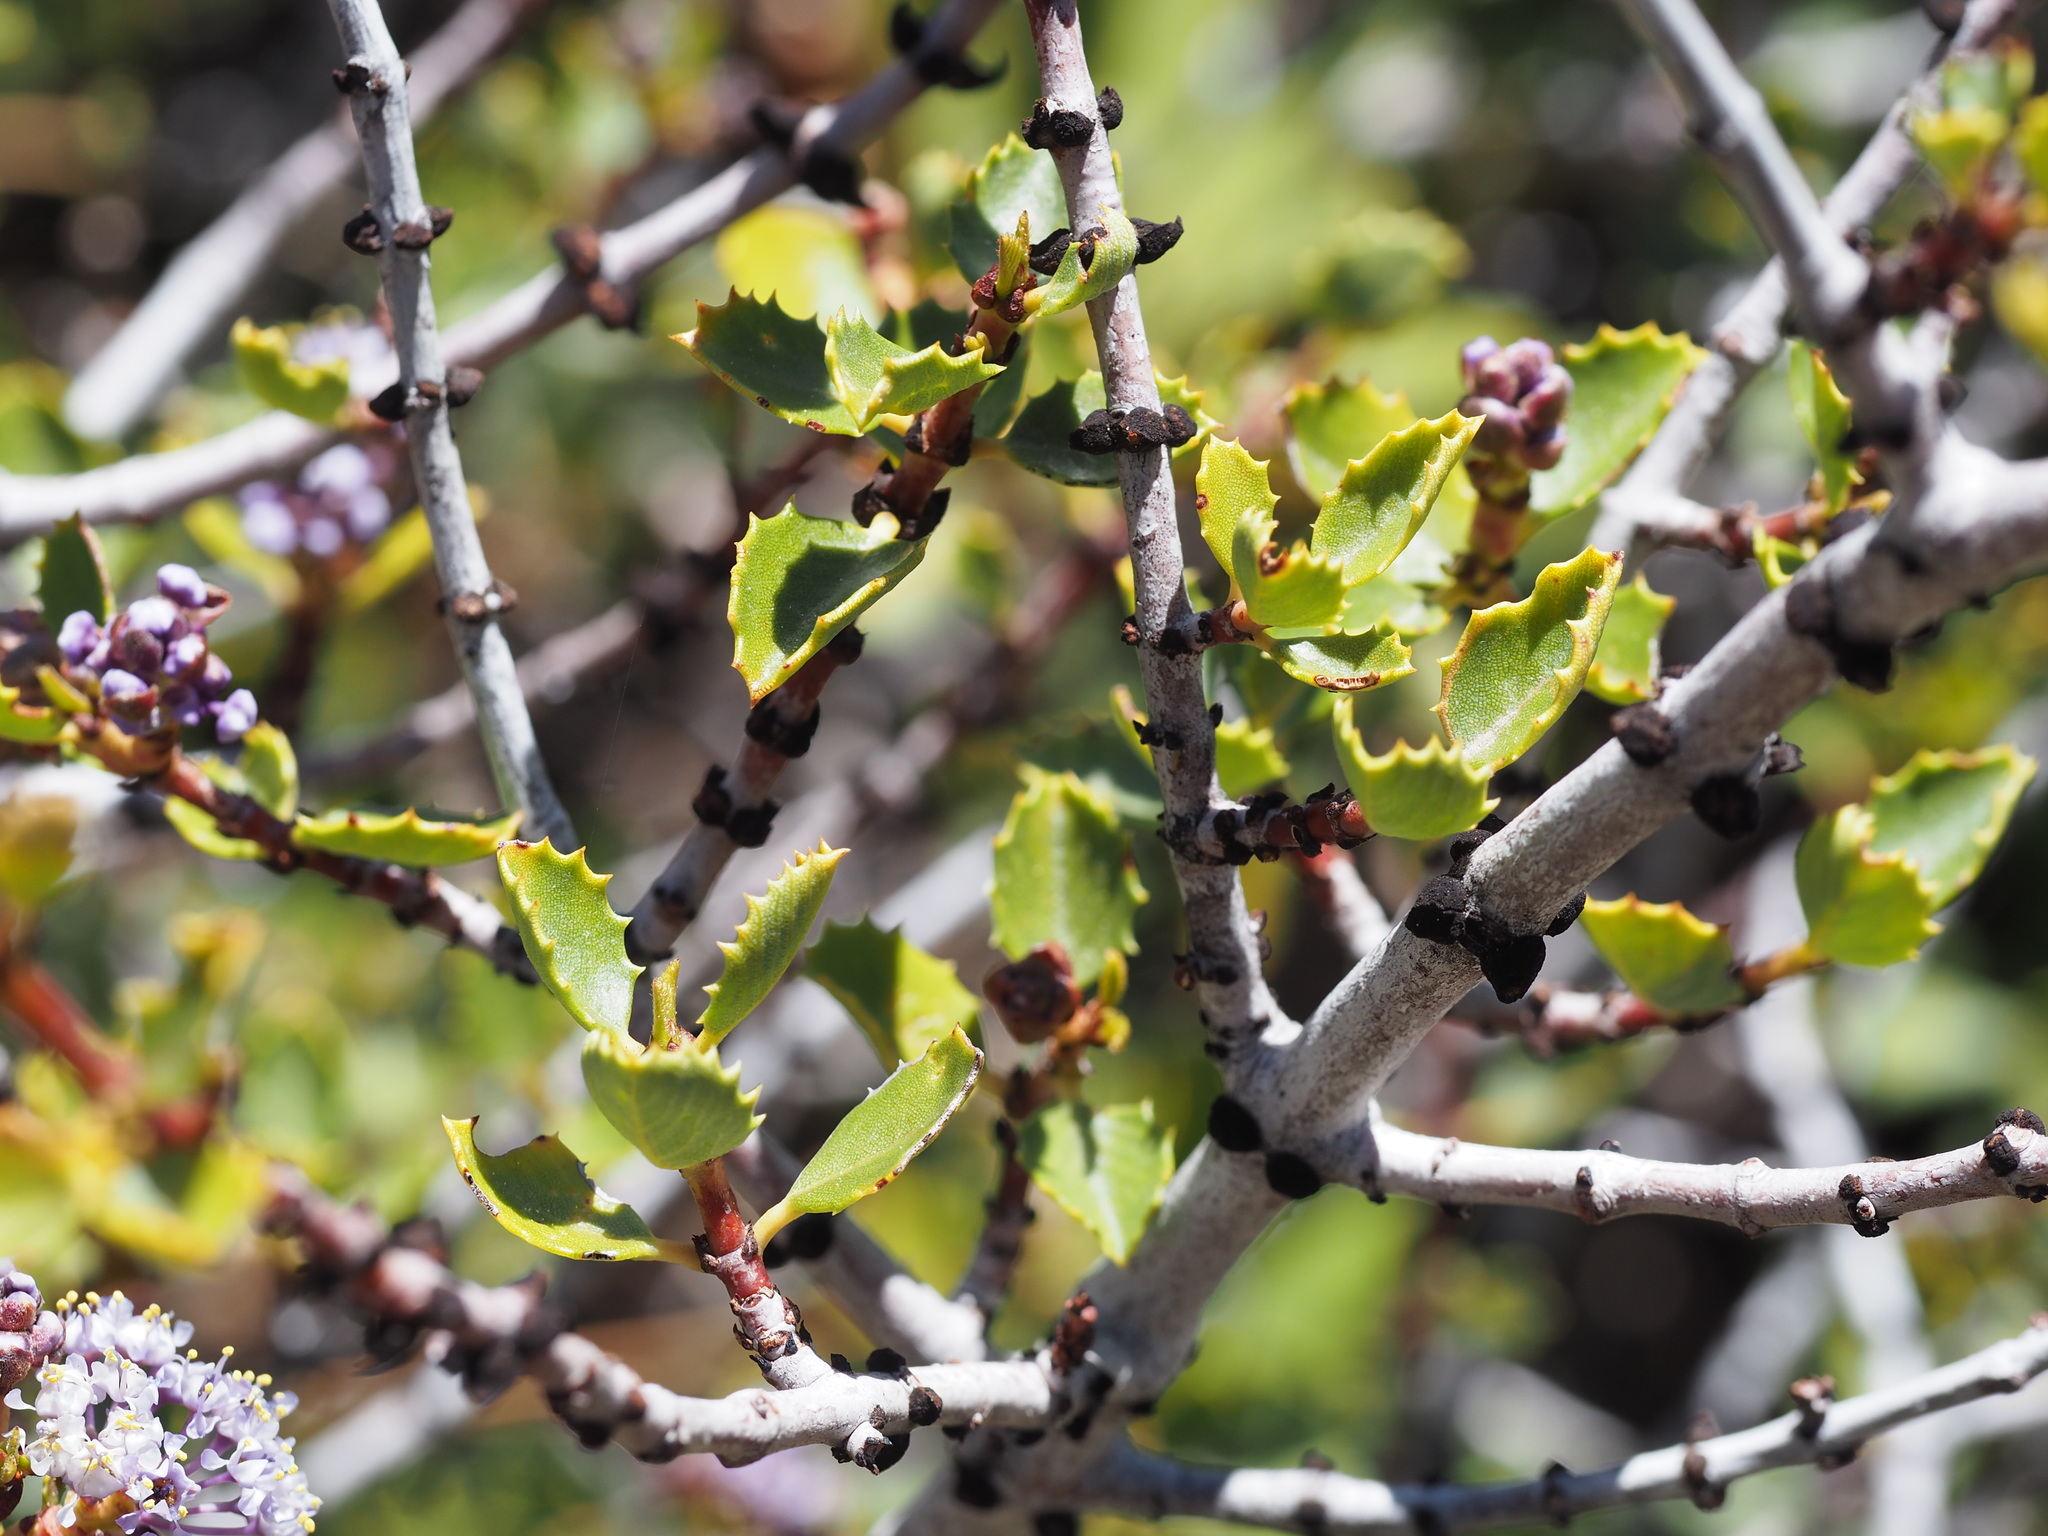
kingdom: Plantae
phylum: Tracheophyta
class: Magnoliopsida
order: Rosales
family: Rhamnaceae
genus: Ceanothus
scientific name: Ceanothus pinetorum
